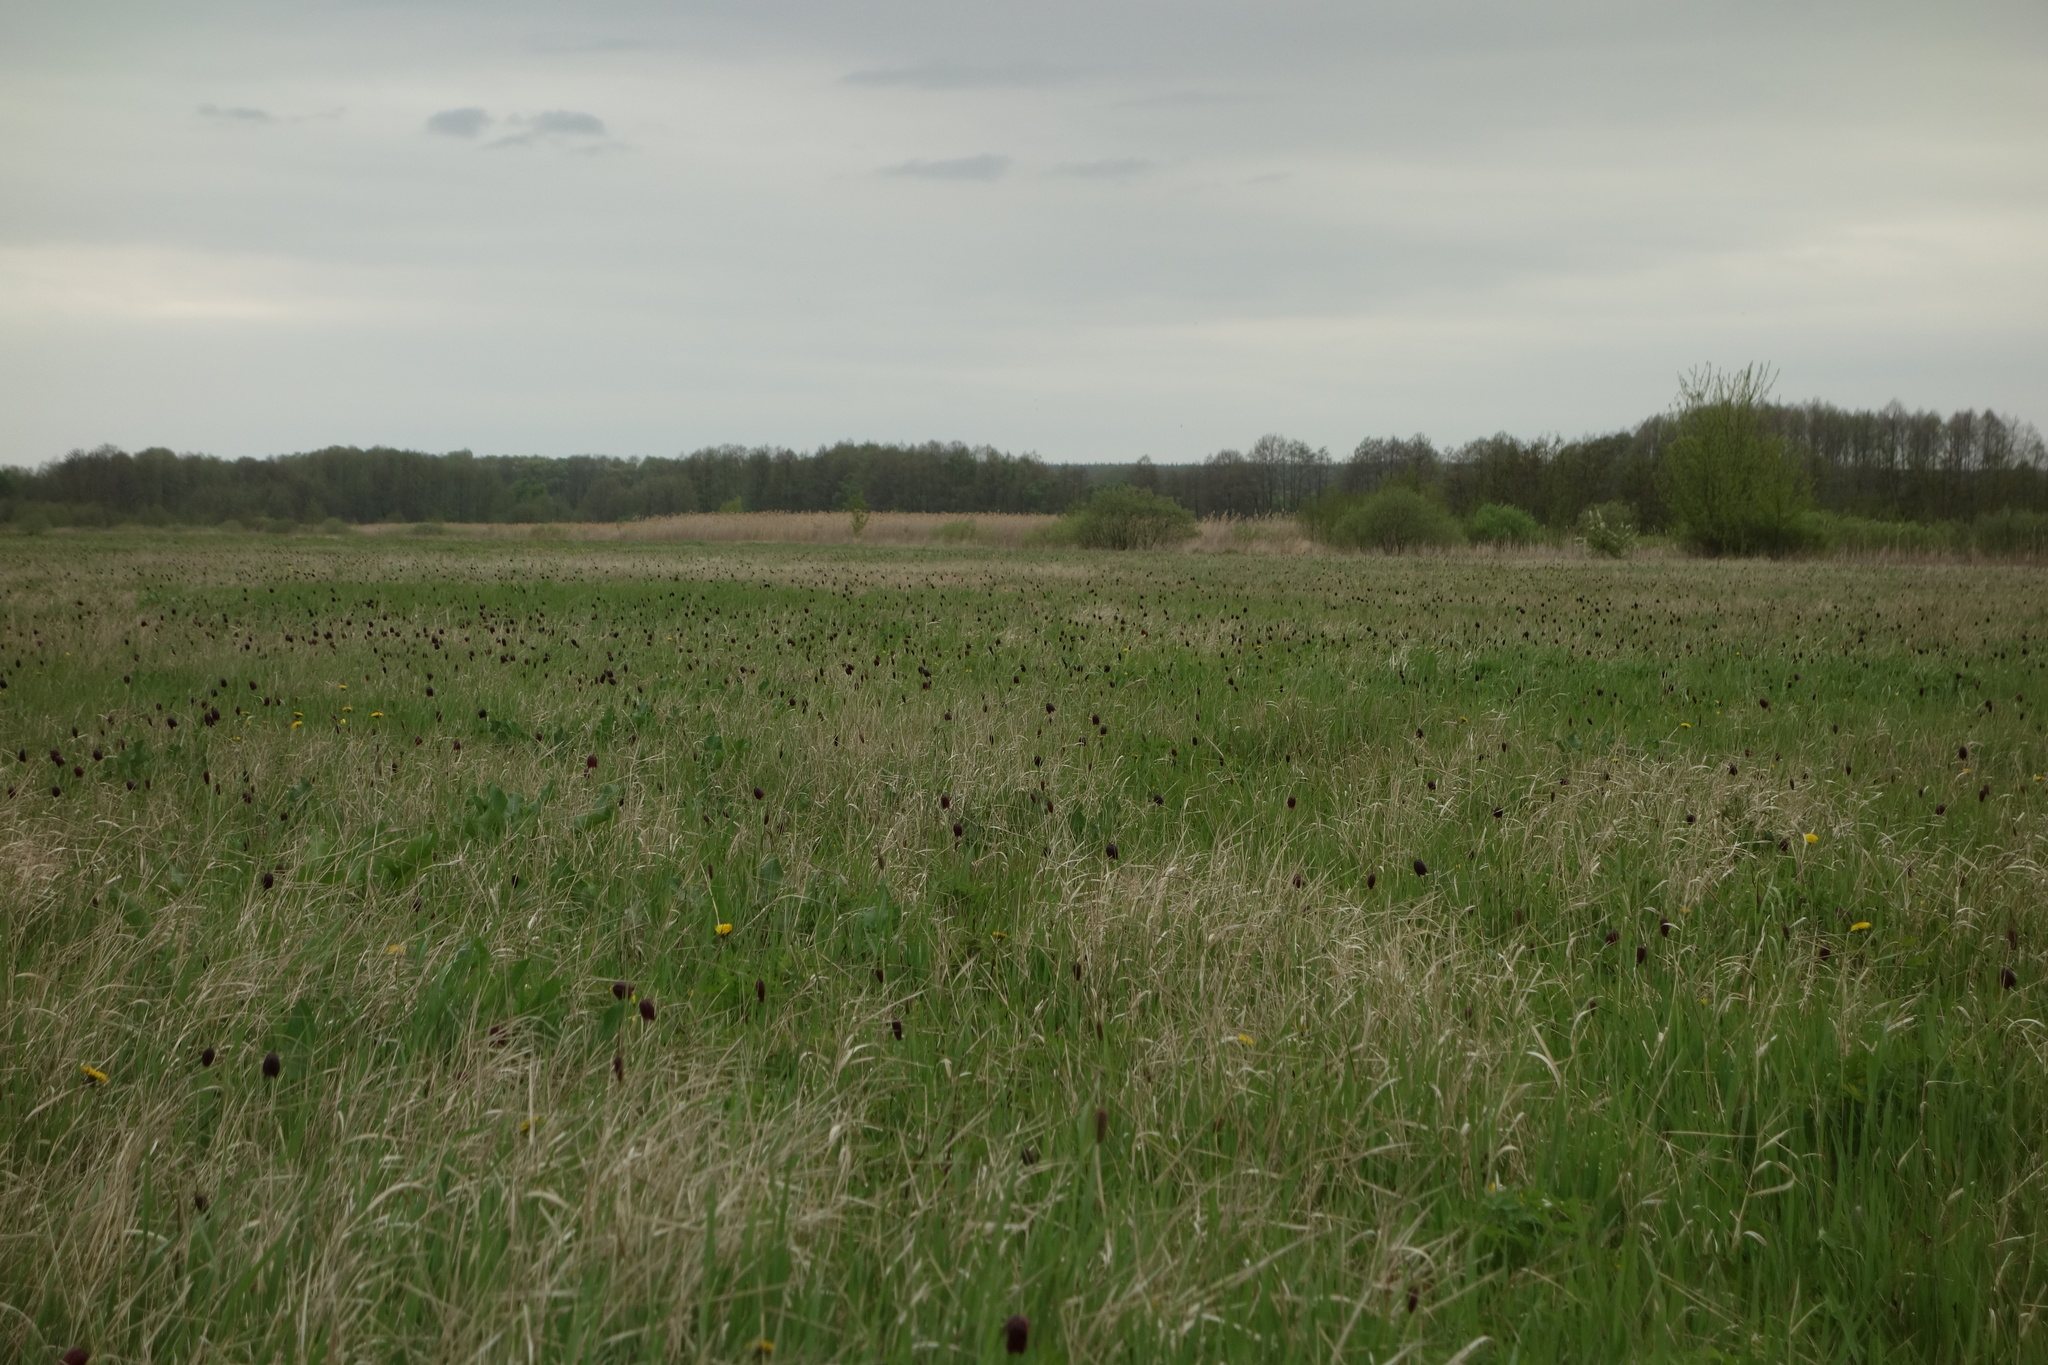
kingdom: Plantae
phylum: Tracheophyta
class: Liliopsida
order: Liliales
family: Liliaceae
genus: Fritillaria
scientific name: Fritillaria meleagroides
